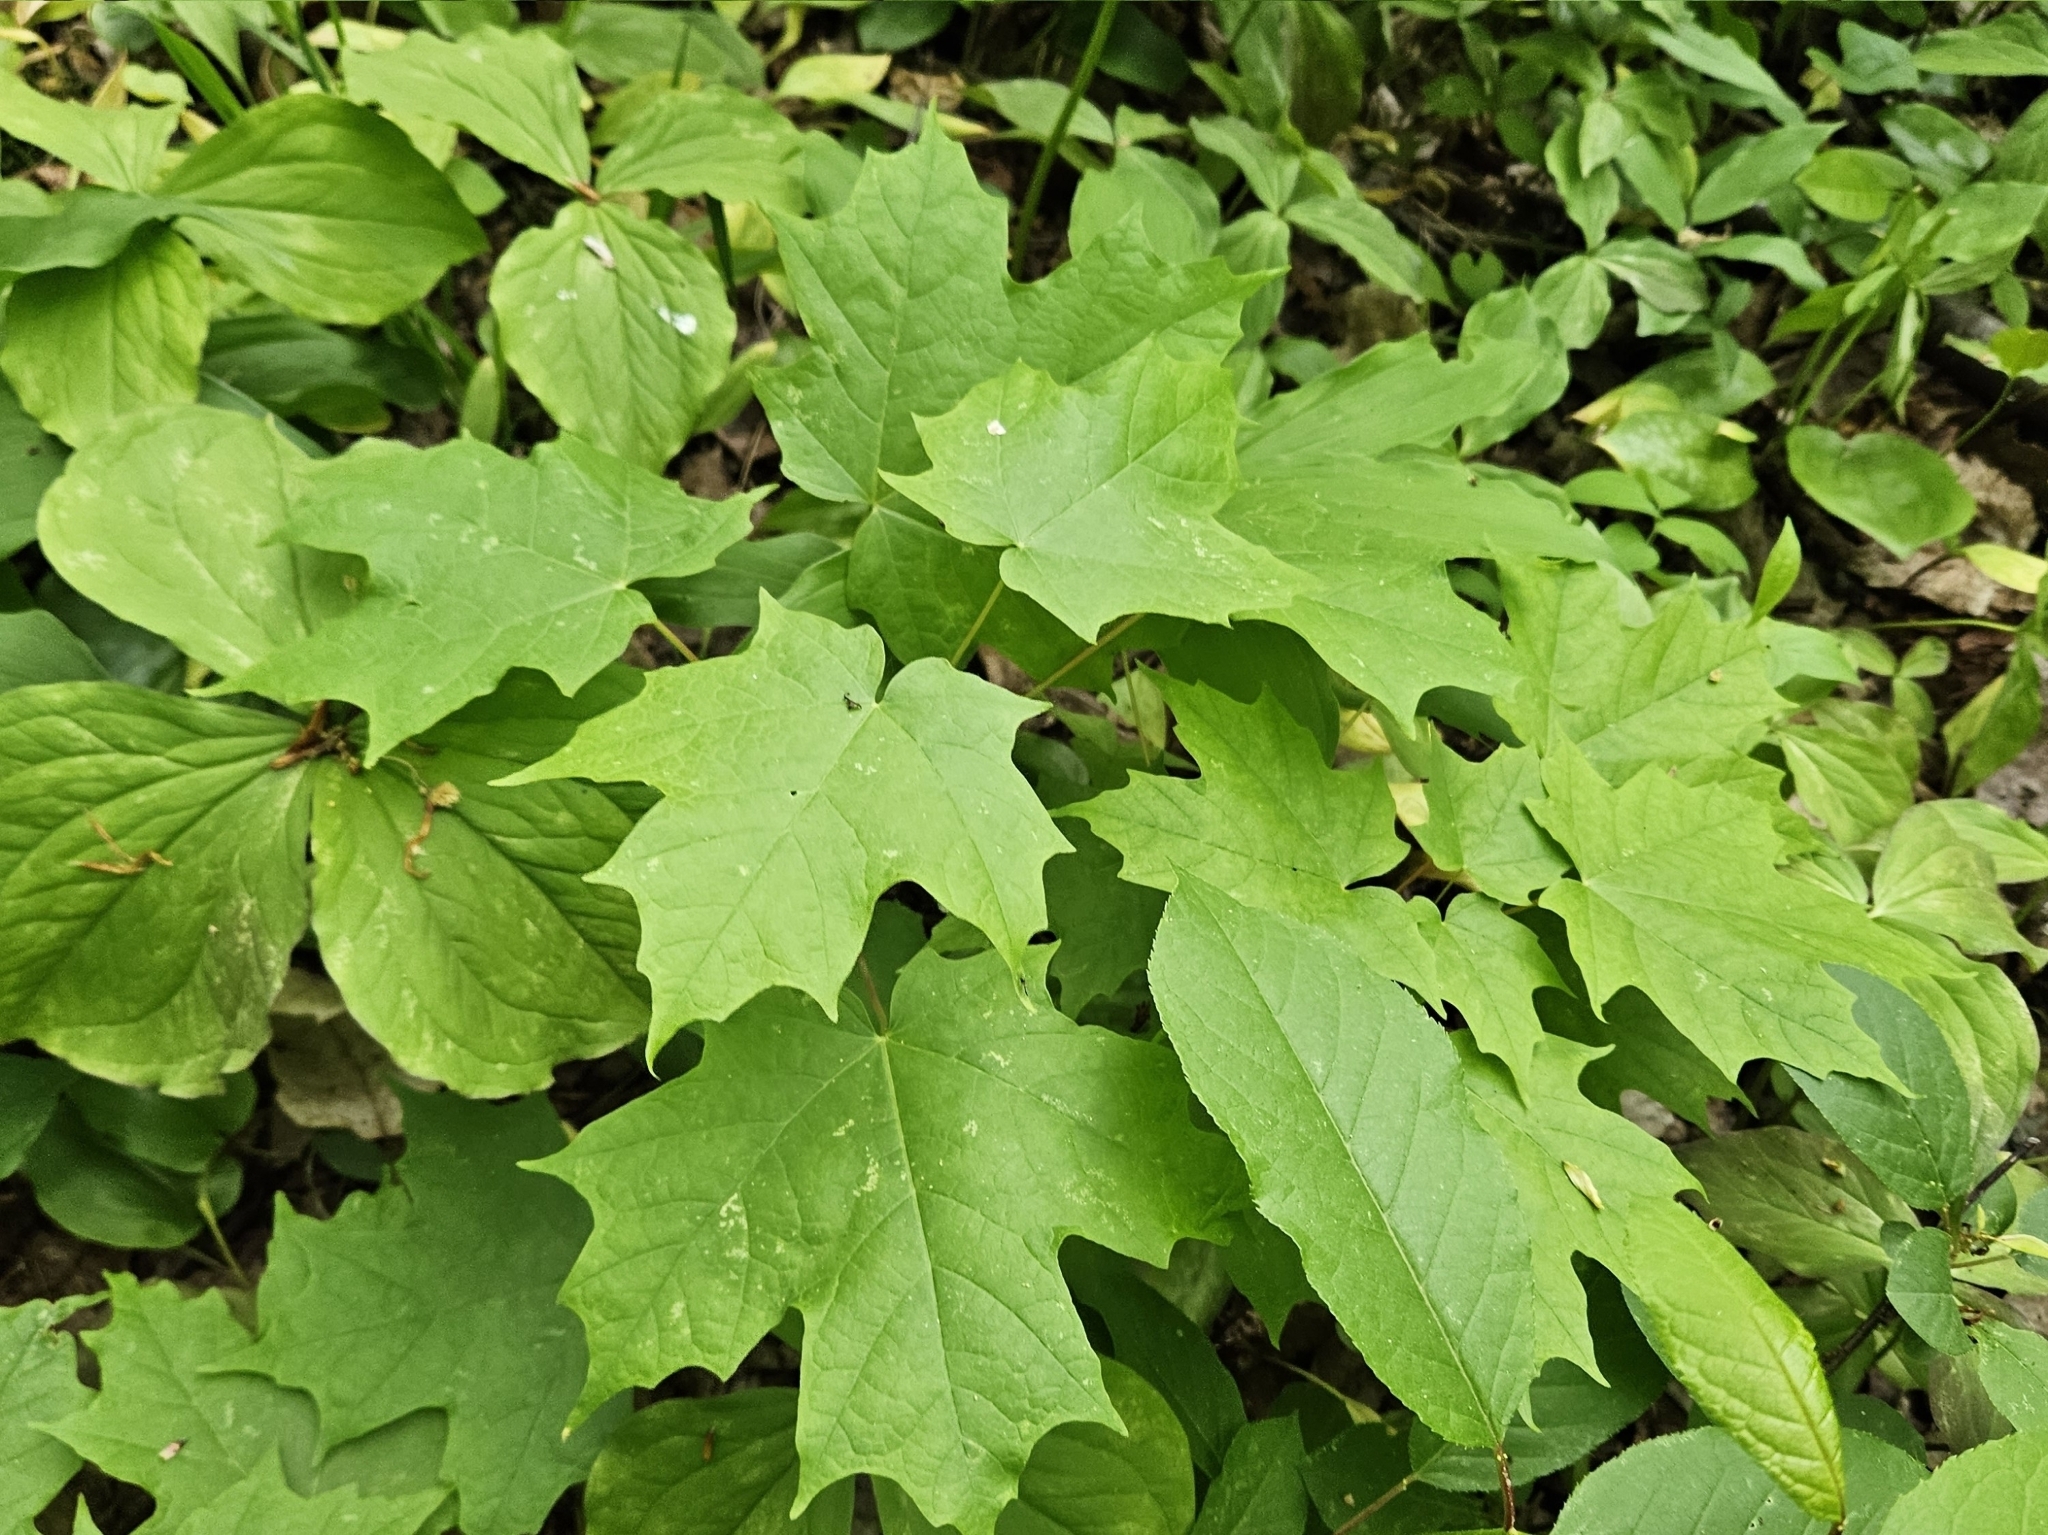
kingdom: Plantae
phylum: Tracheophyta
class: Magnoliopsida
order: Sapindales
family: Sapindaceae
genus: Acer
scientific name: Acer saccharum
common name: Sugar maple
